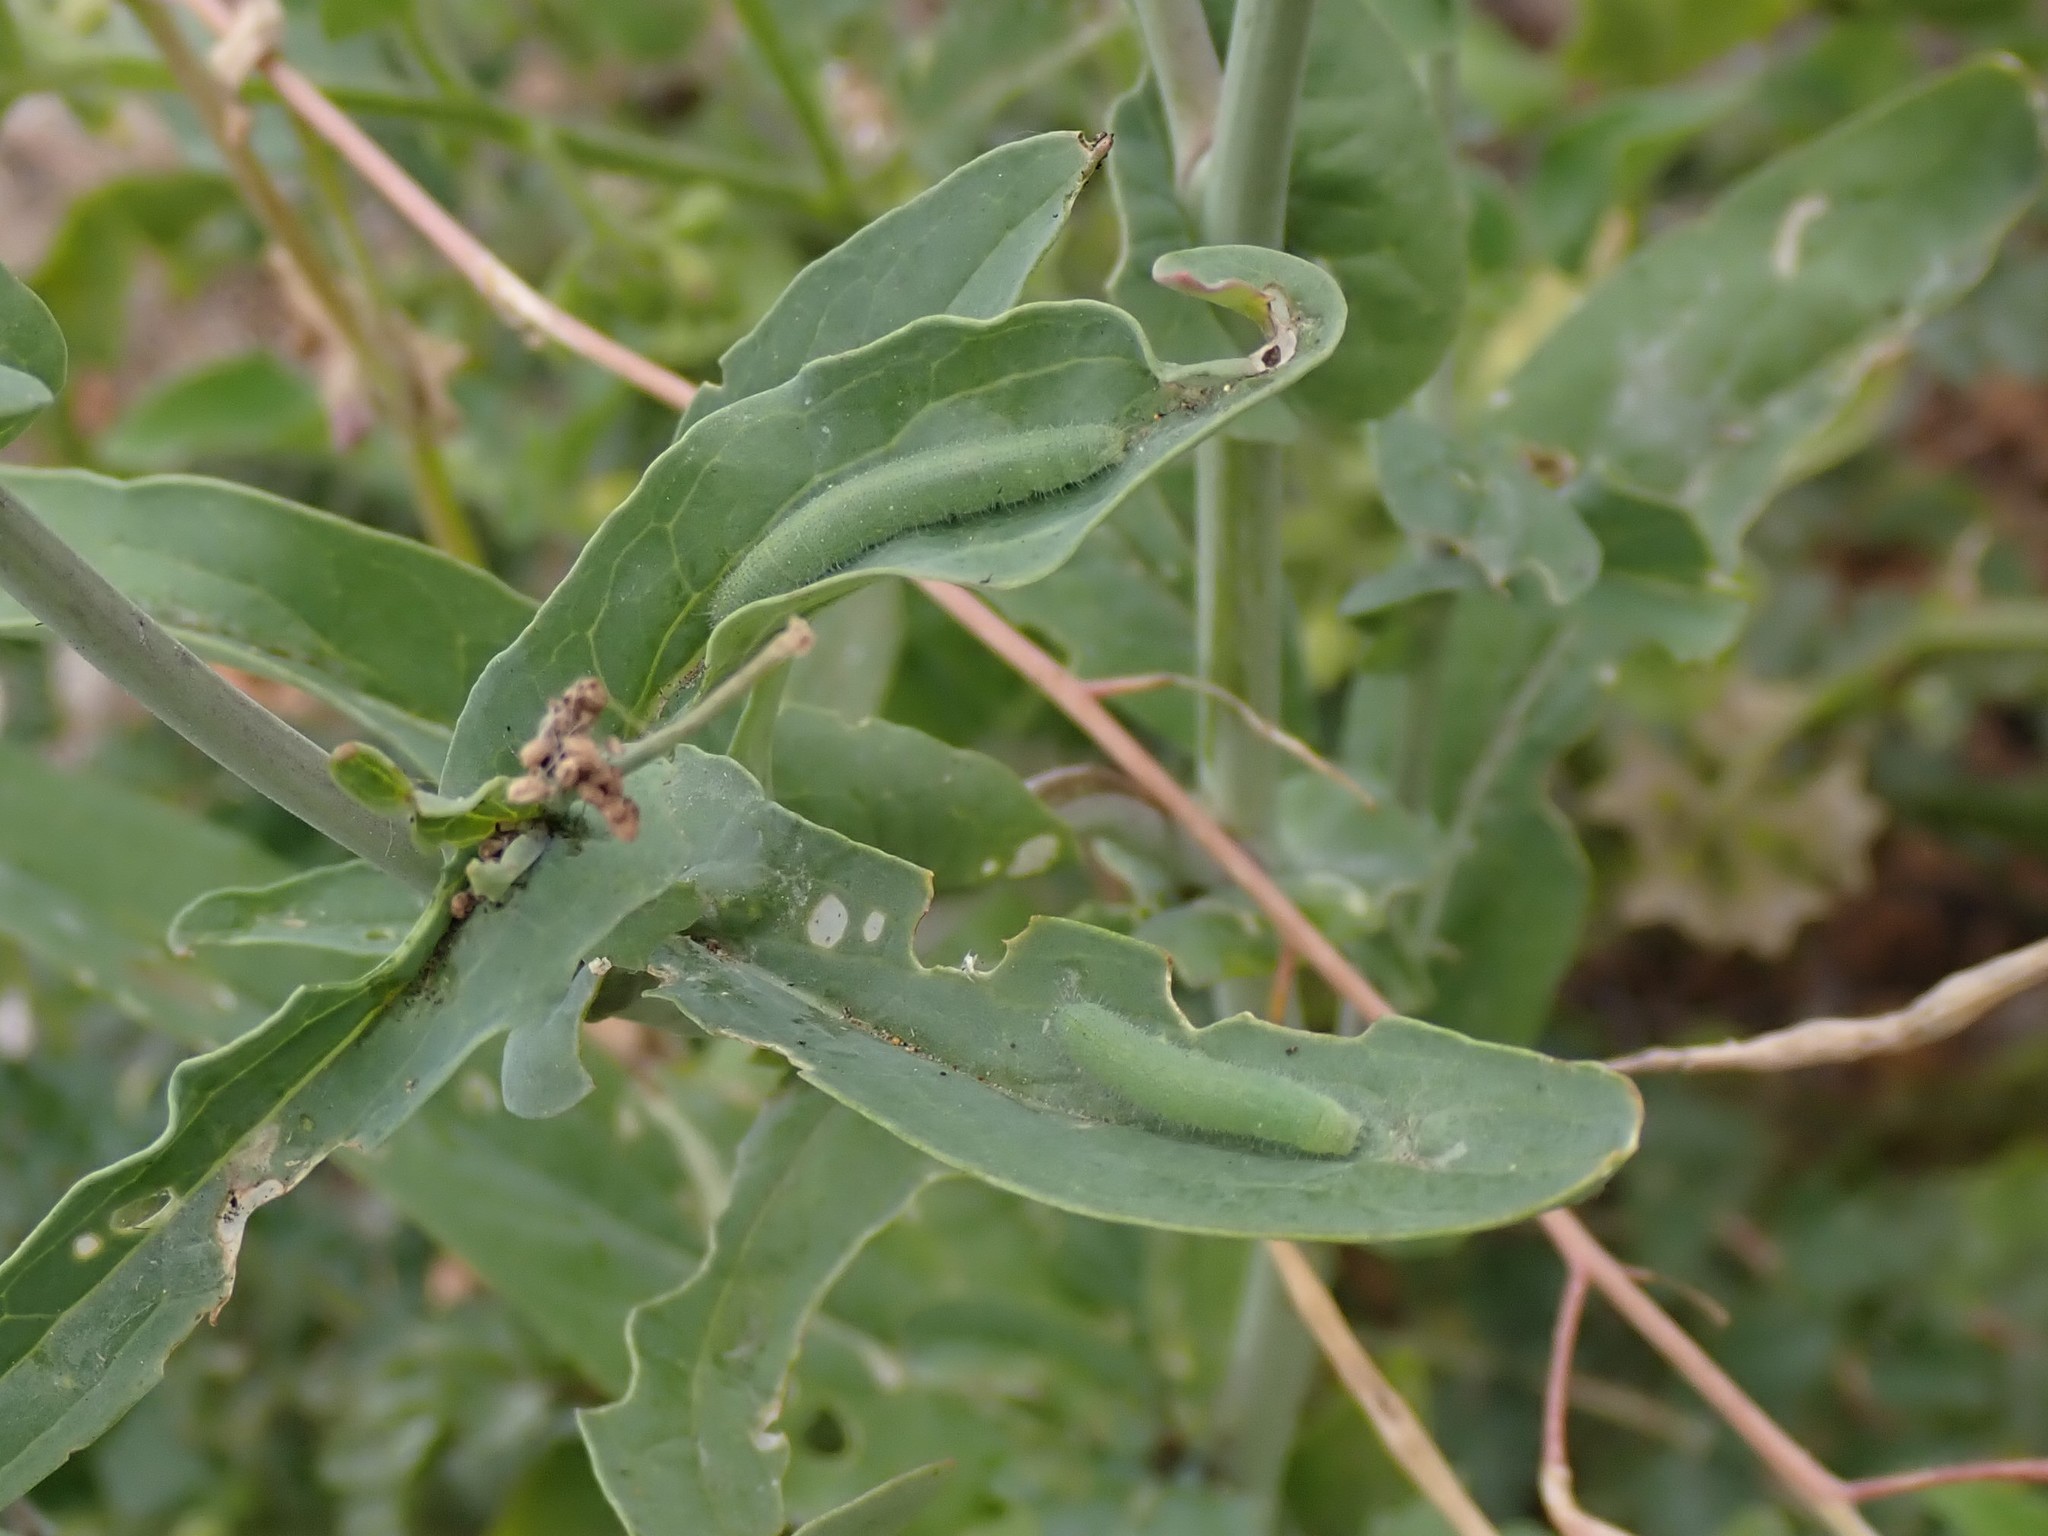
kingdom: Animalia
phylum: Arthropoda
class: Insecta
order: Lepidoptera
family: Pieridae
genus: Pieris
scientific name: Pieris rapae
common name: Small white
